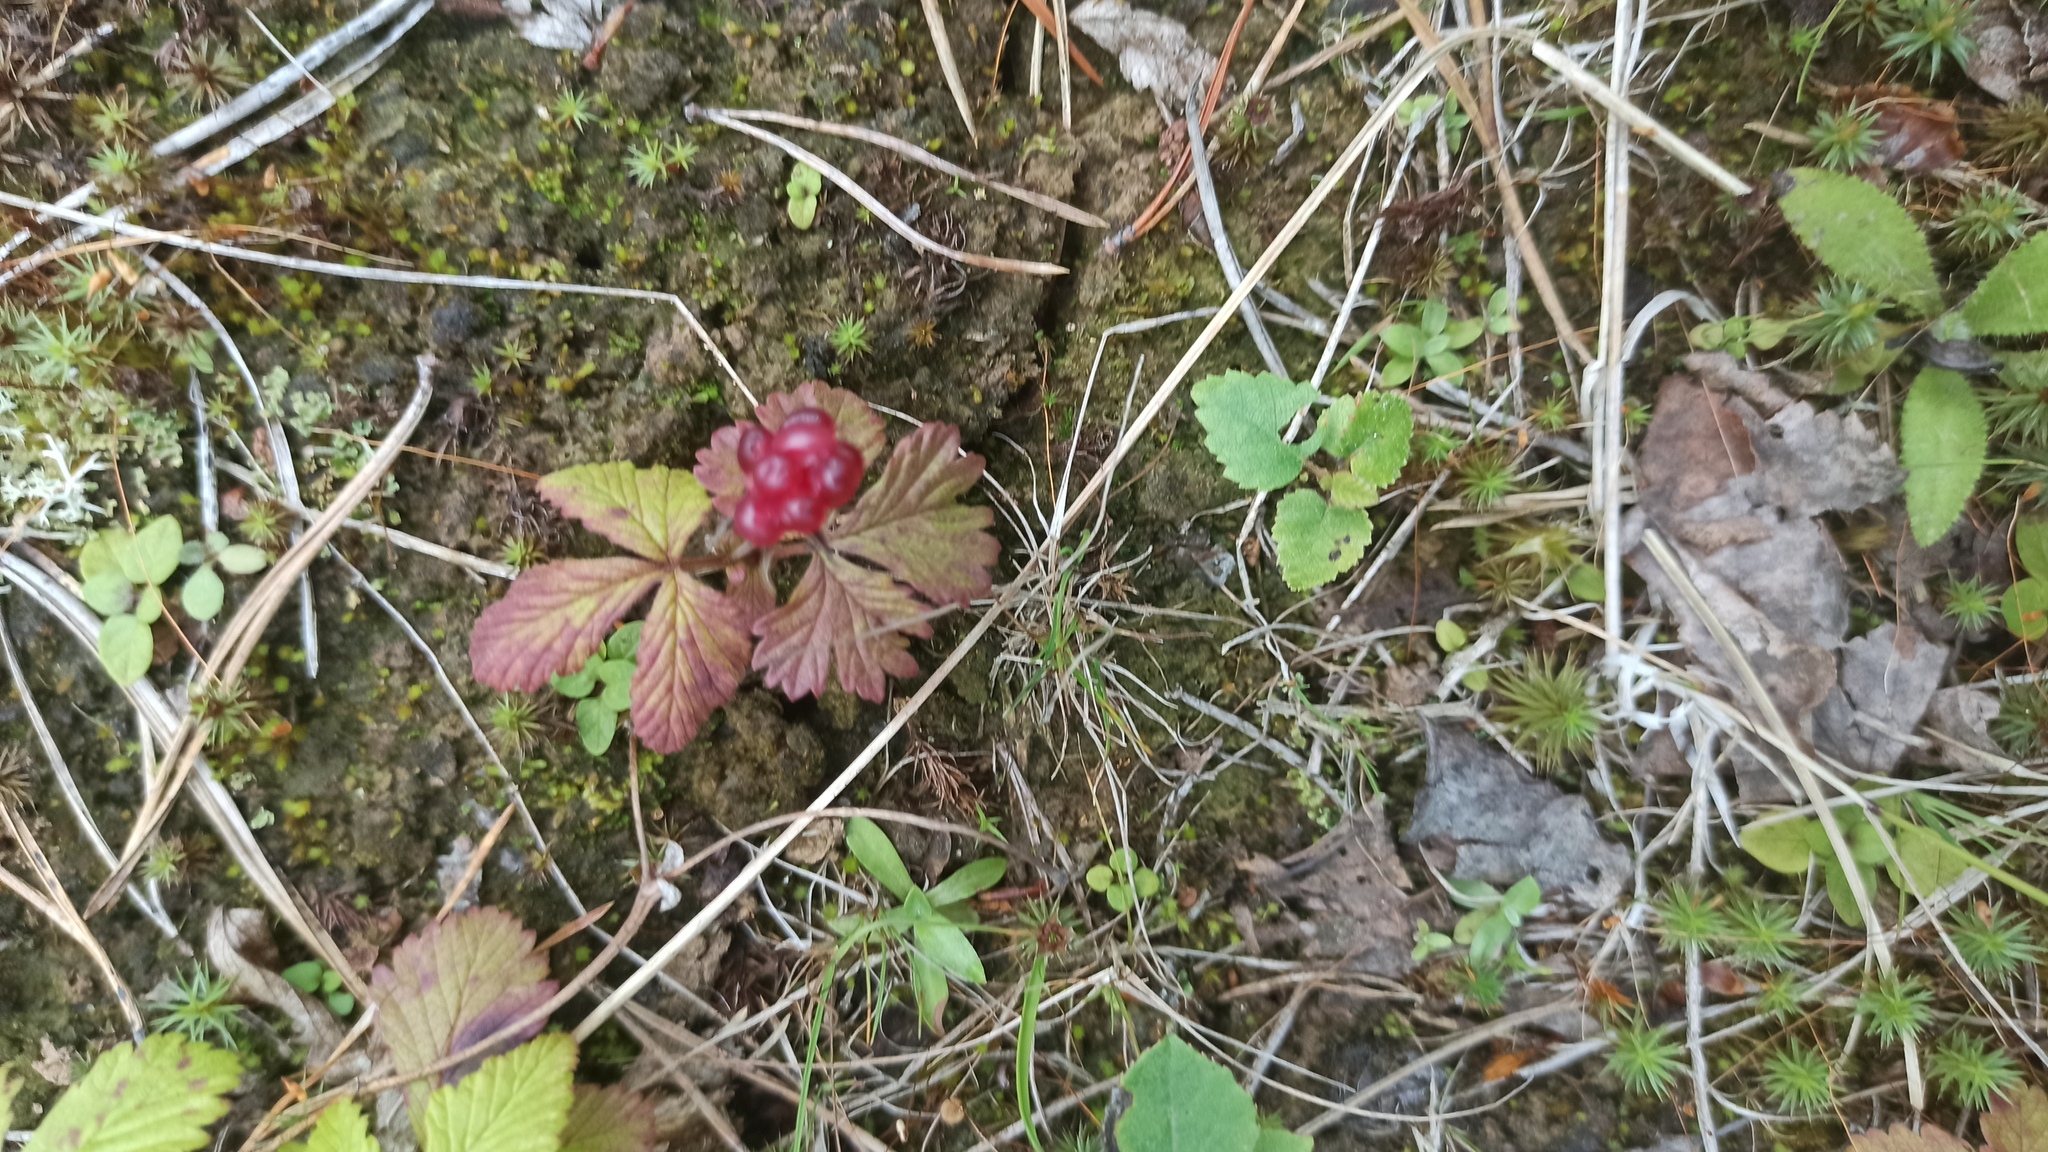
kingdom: Plantae
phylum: Tracheophyta
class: Magnoliopsida
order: Rosales
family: Rosaceae
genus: Rubus
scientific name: Rubus arcticus
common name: Arctic bramble
